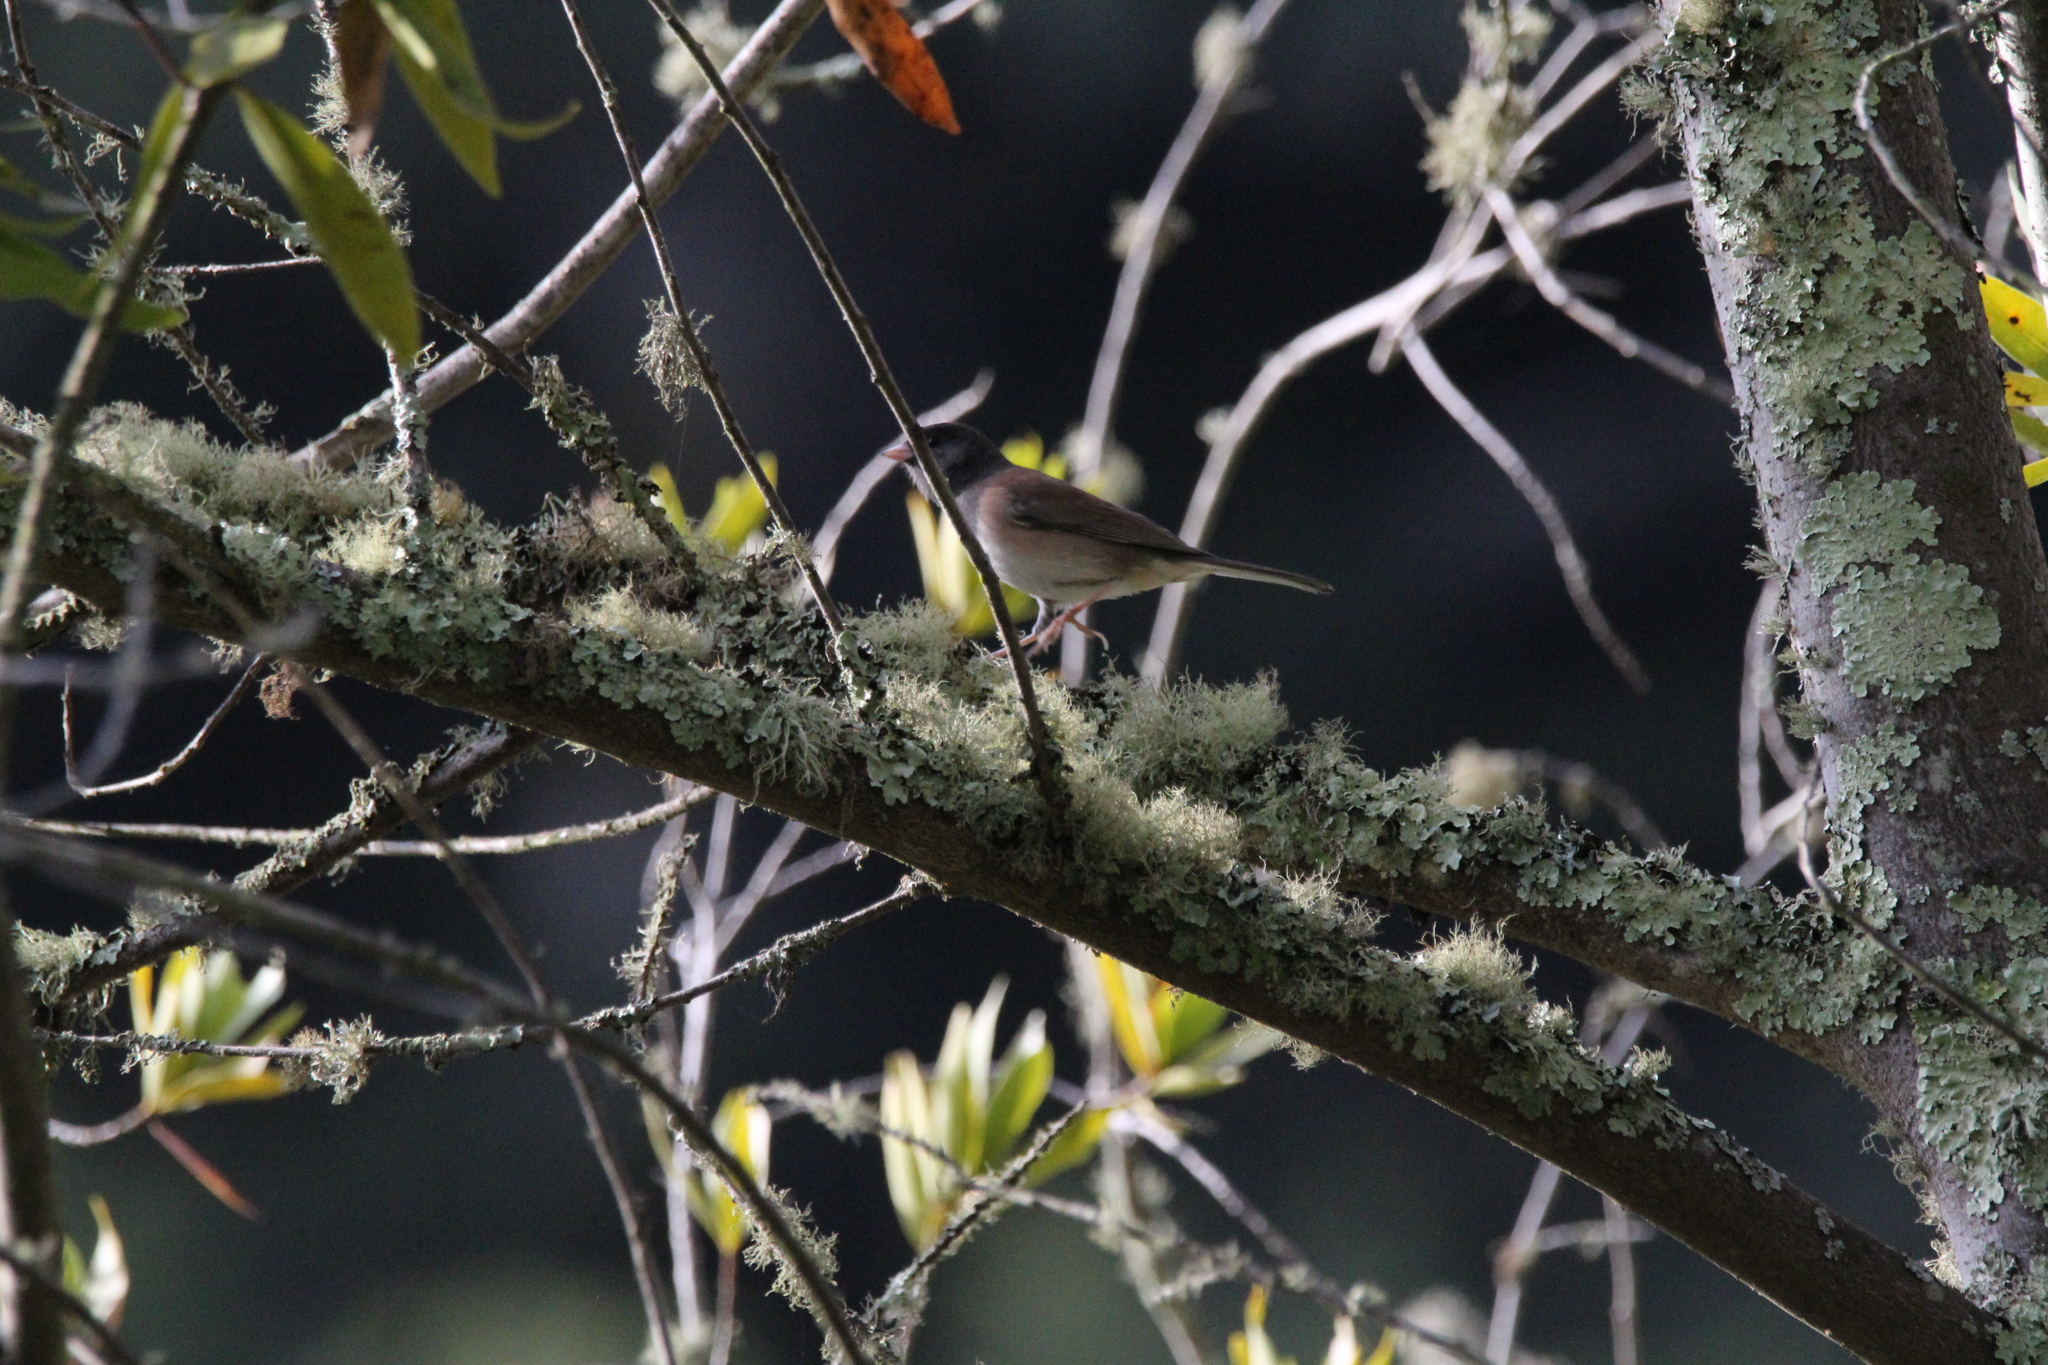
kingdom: Animalia
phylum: Chordata
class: Aves
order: Passeriformes
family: Passerellidae
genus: Junco
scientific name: Junco hyemalis
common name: Dark-eyed junco
